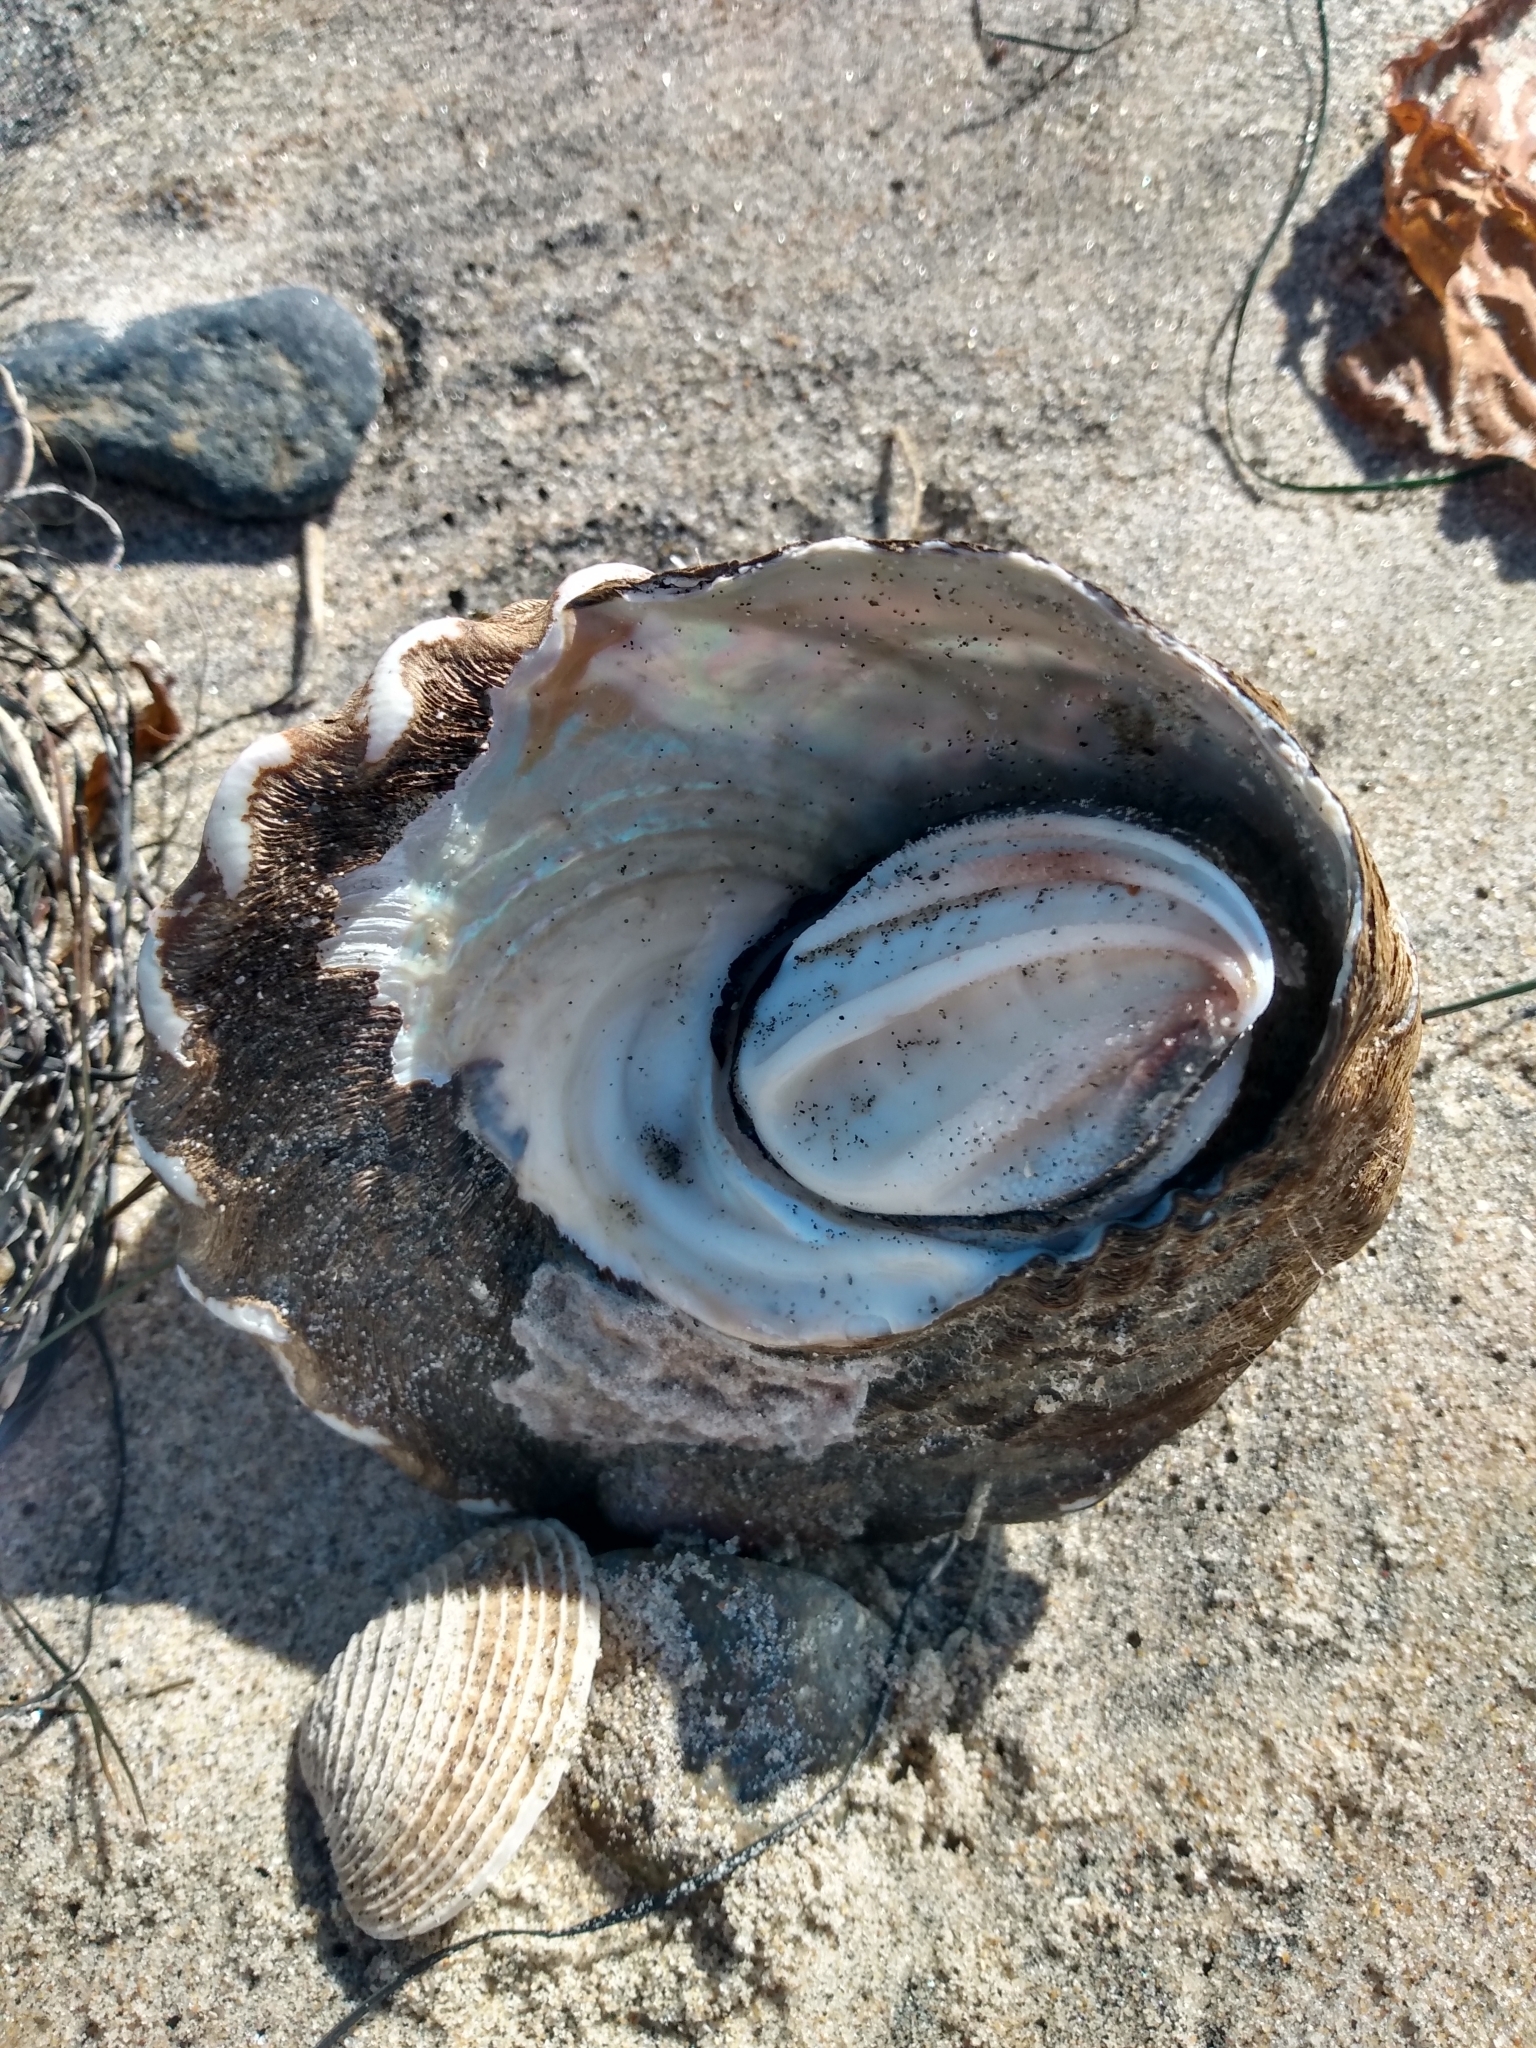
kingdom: Animalia
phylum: Mollusca
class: Gastropoda
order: Trochida
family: Turbinidae
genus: Megastraea
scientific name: Megastraea undosa
